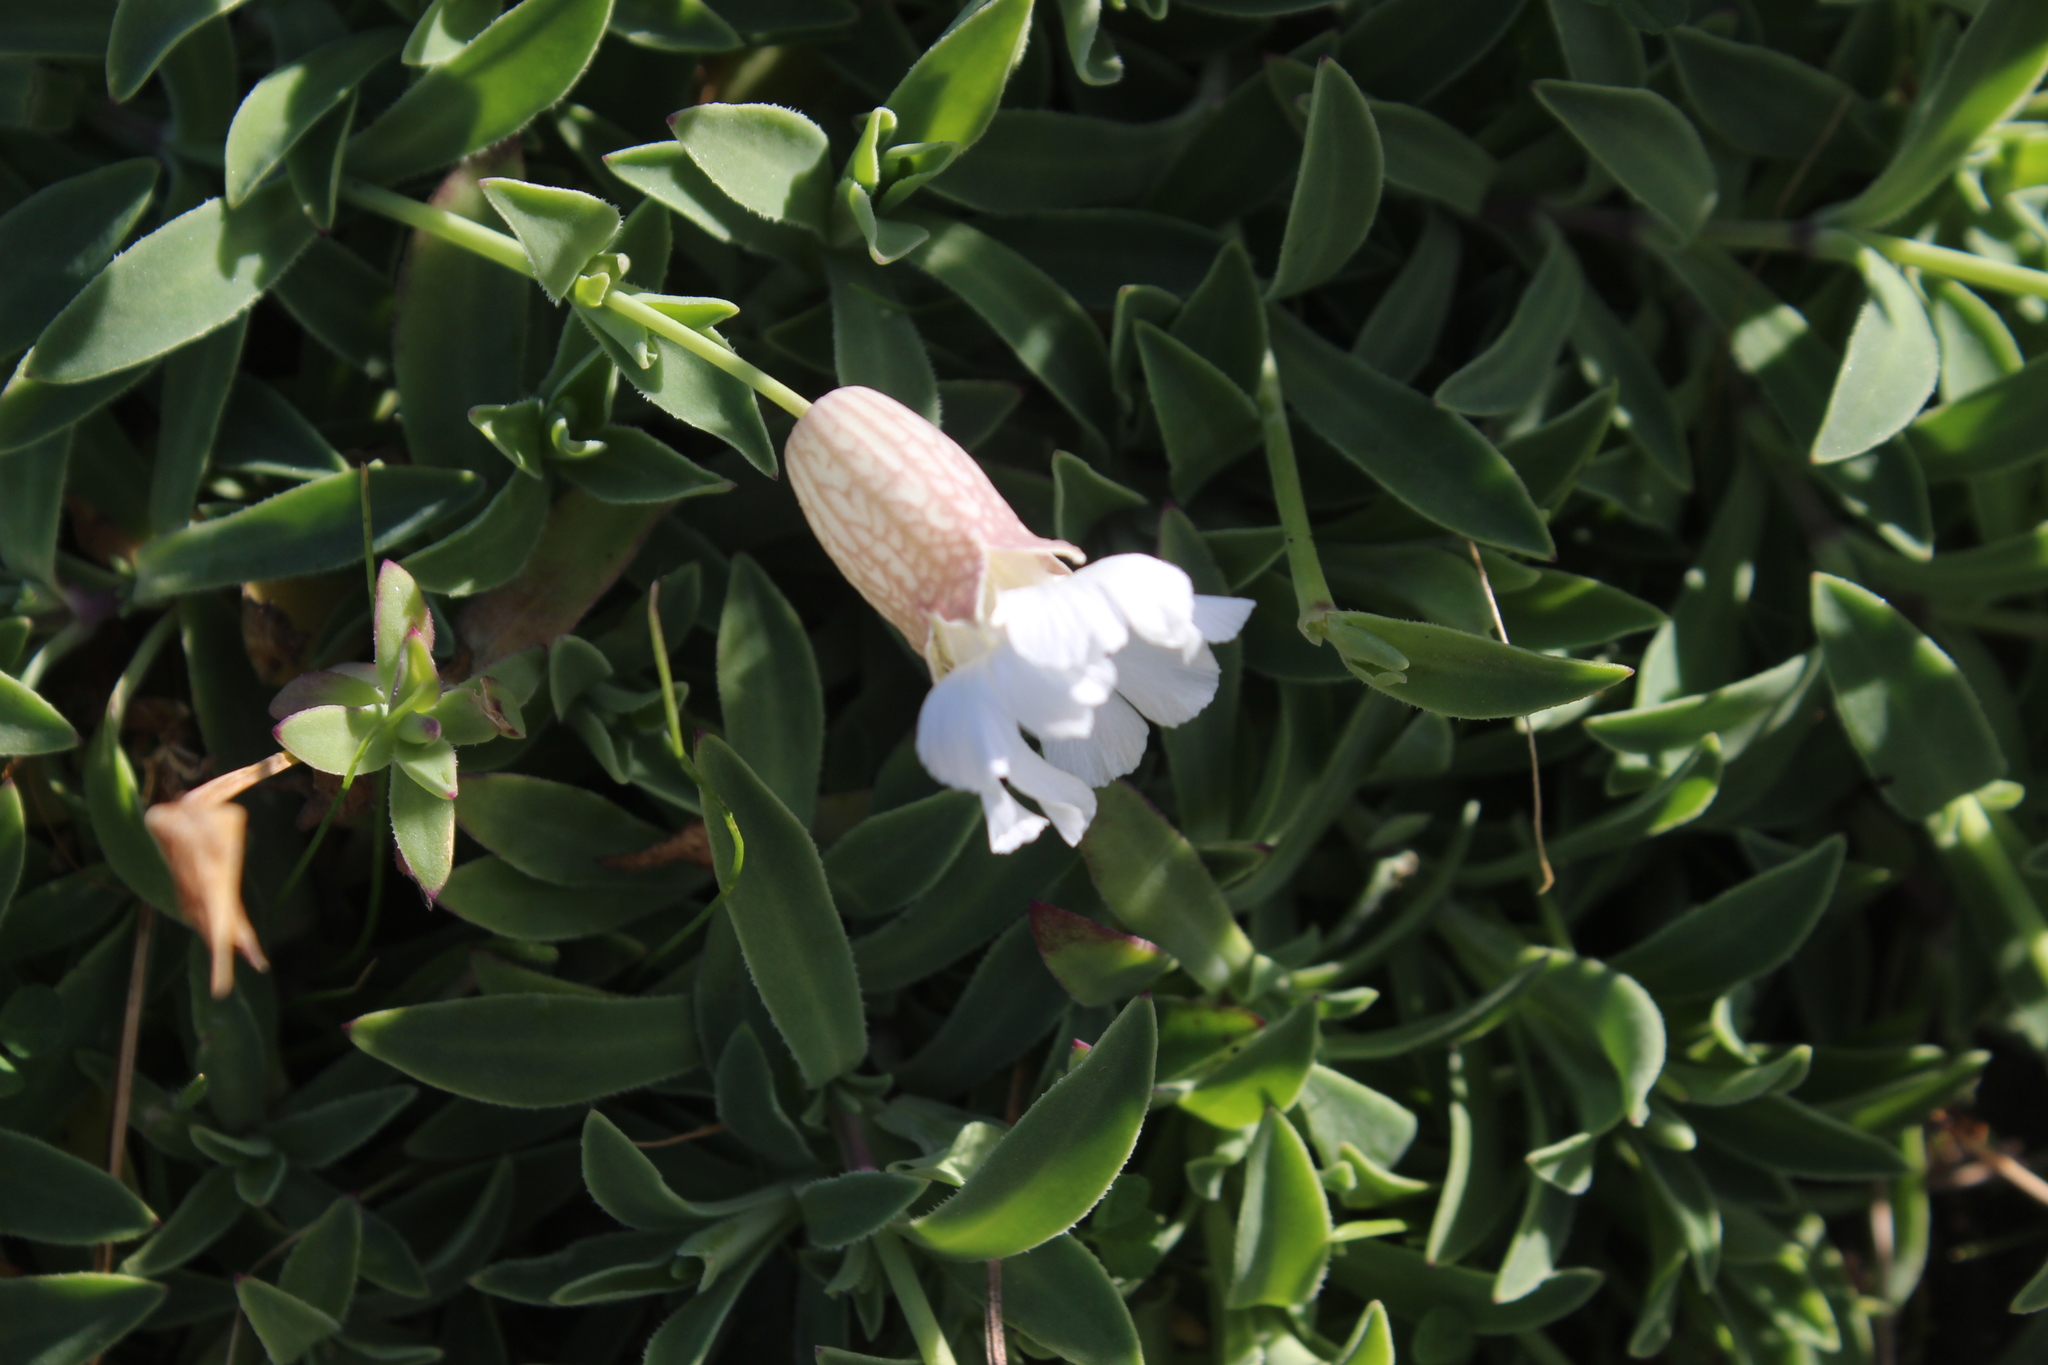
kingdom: Plantae
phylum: Tracheophyta
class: Magnoliopsida
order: Caryophyllales
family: Caryophyllaceae
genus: Silene
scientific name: Silene uniflora
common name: Sea campion
